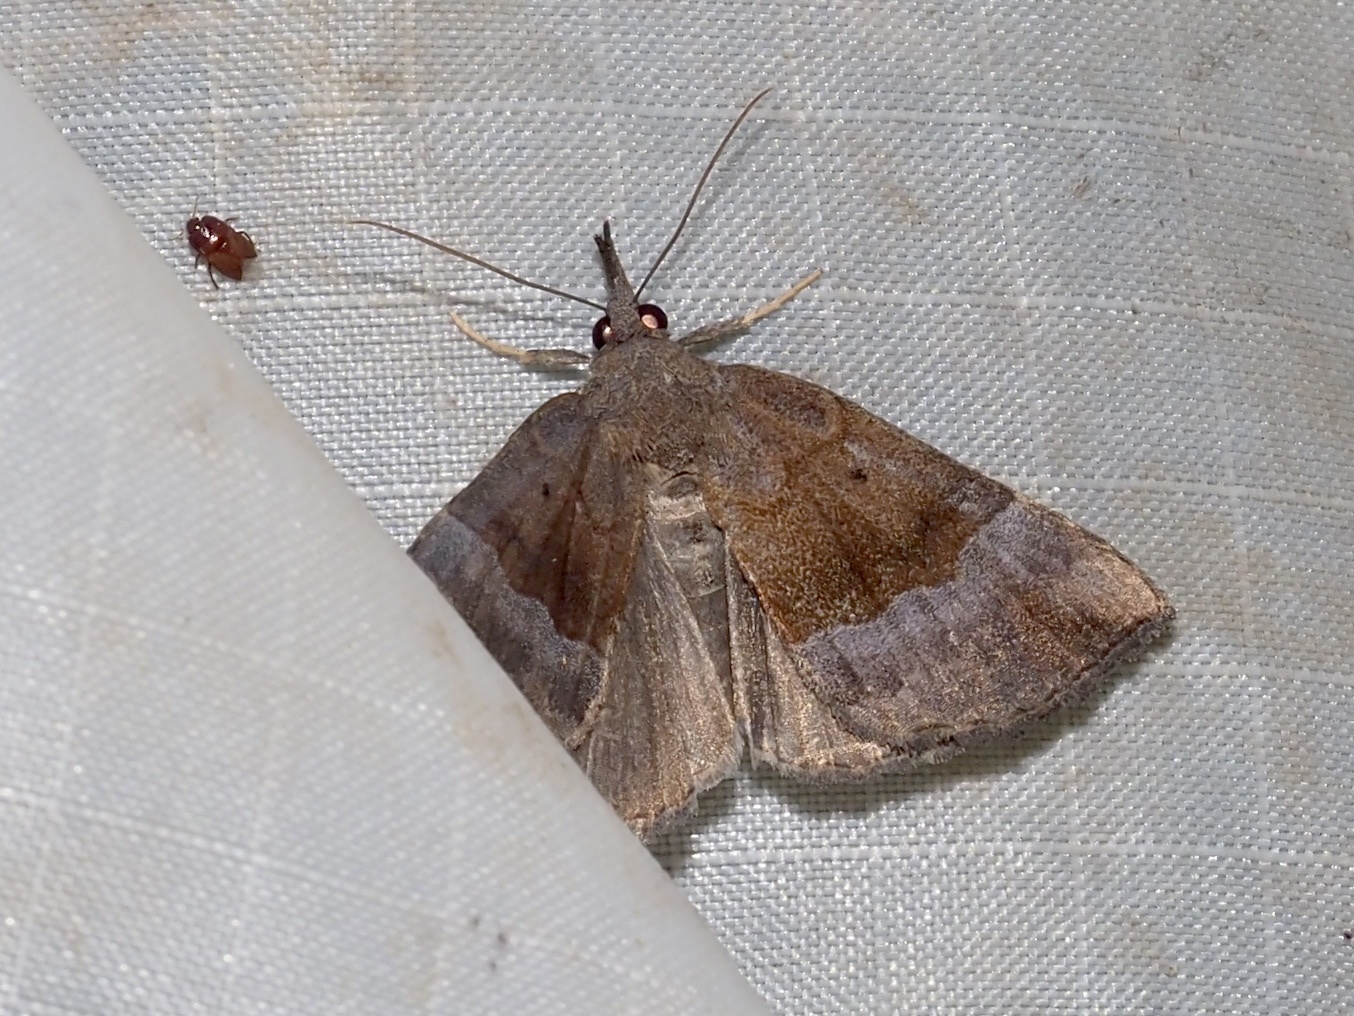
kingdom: Animalia
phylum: Arthropoda
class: Insecta
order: Lepidoptera
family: Erebidae
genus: Hypena
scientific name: Hypena madefactalis
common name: Gray-edged snout
